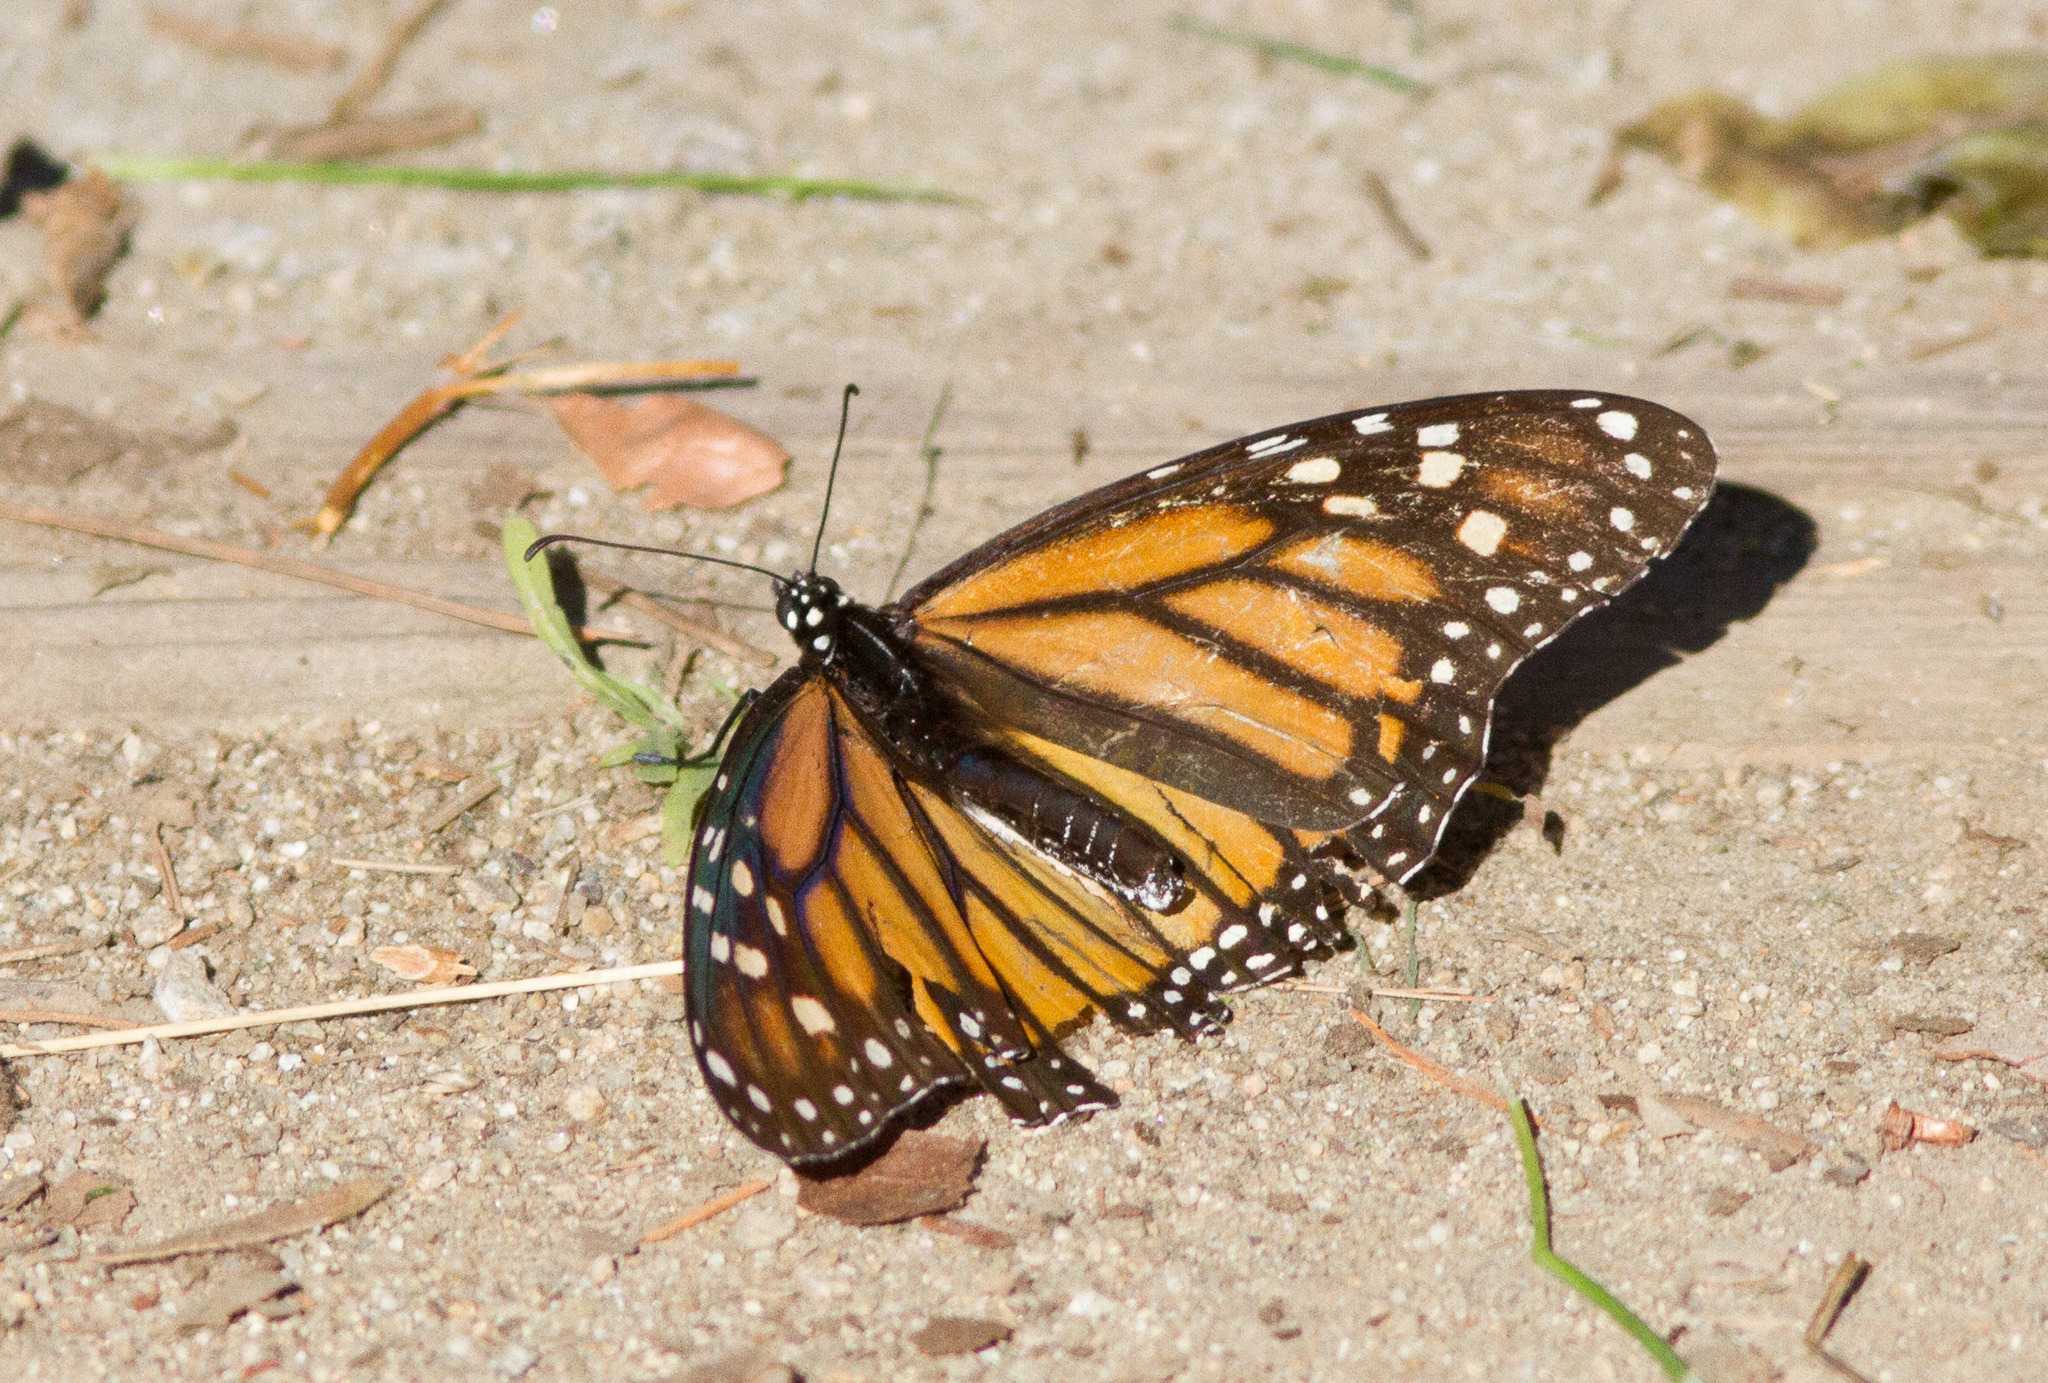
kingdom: Animalia
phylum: Arthropoda
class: Insecta
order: Lepidoptera
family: Nymphalidae
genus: Danaus
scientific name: Danaus plexippus
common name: Monarch
